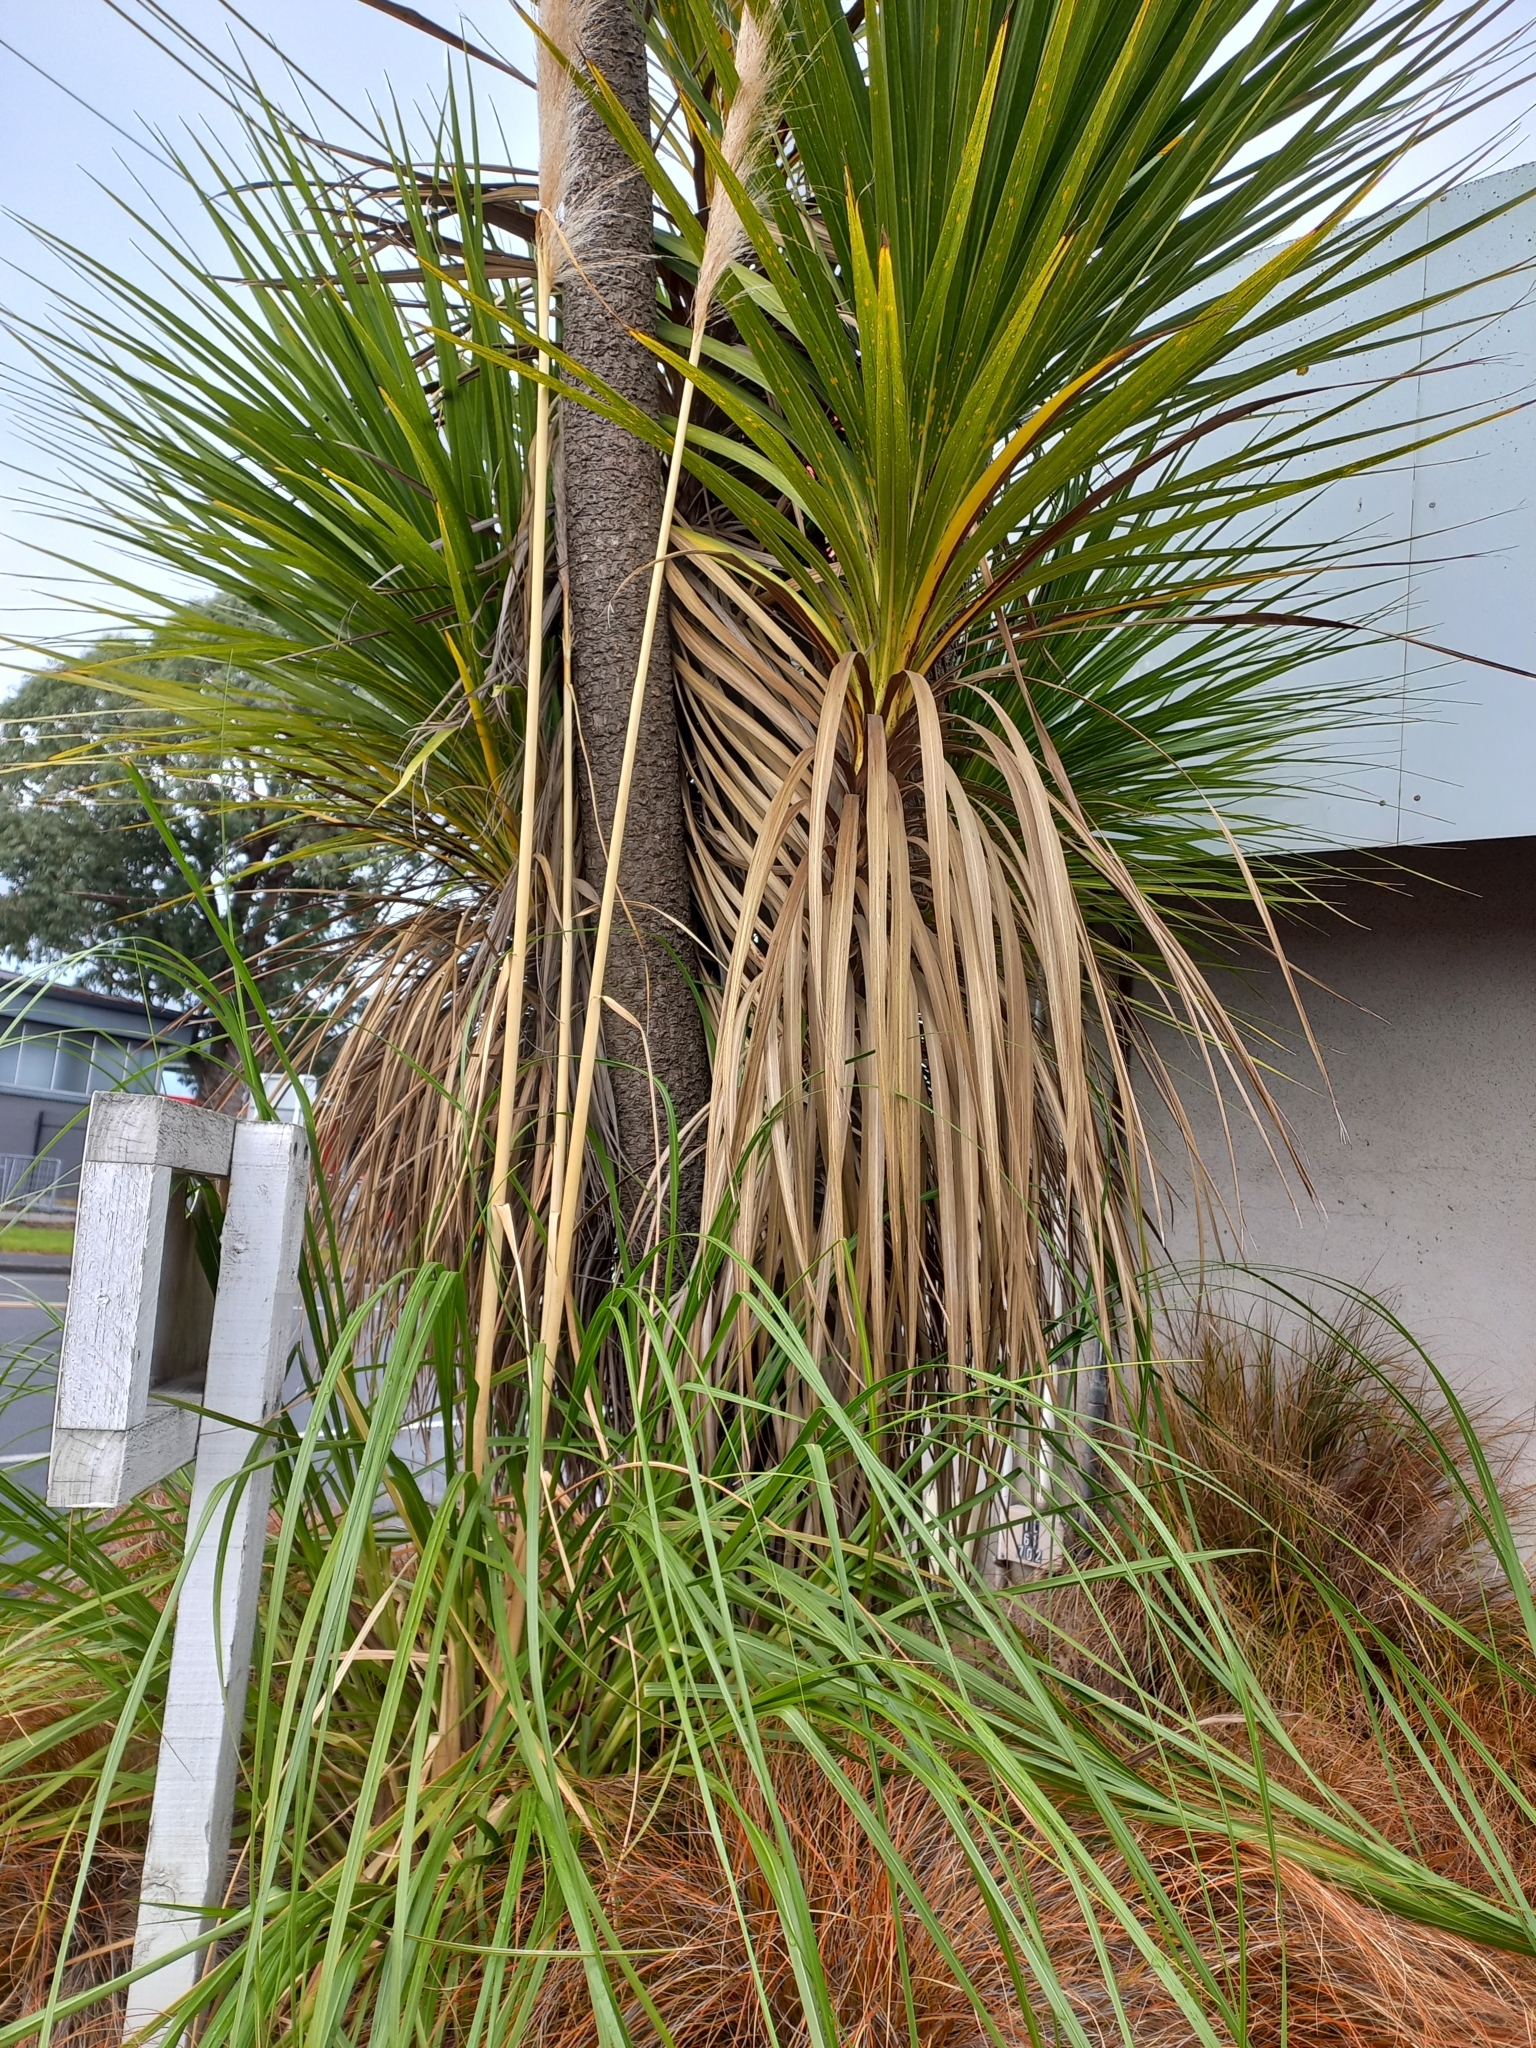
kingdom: Plantae
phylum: Tracheophyta
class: Liliopsida
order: Poales
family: Poaceae
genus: Cortaderia
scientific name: Cortaderia selloana
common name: Uruguayan pampas grass
